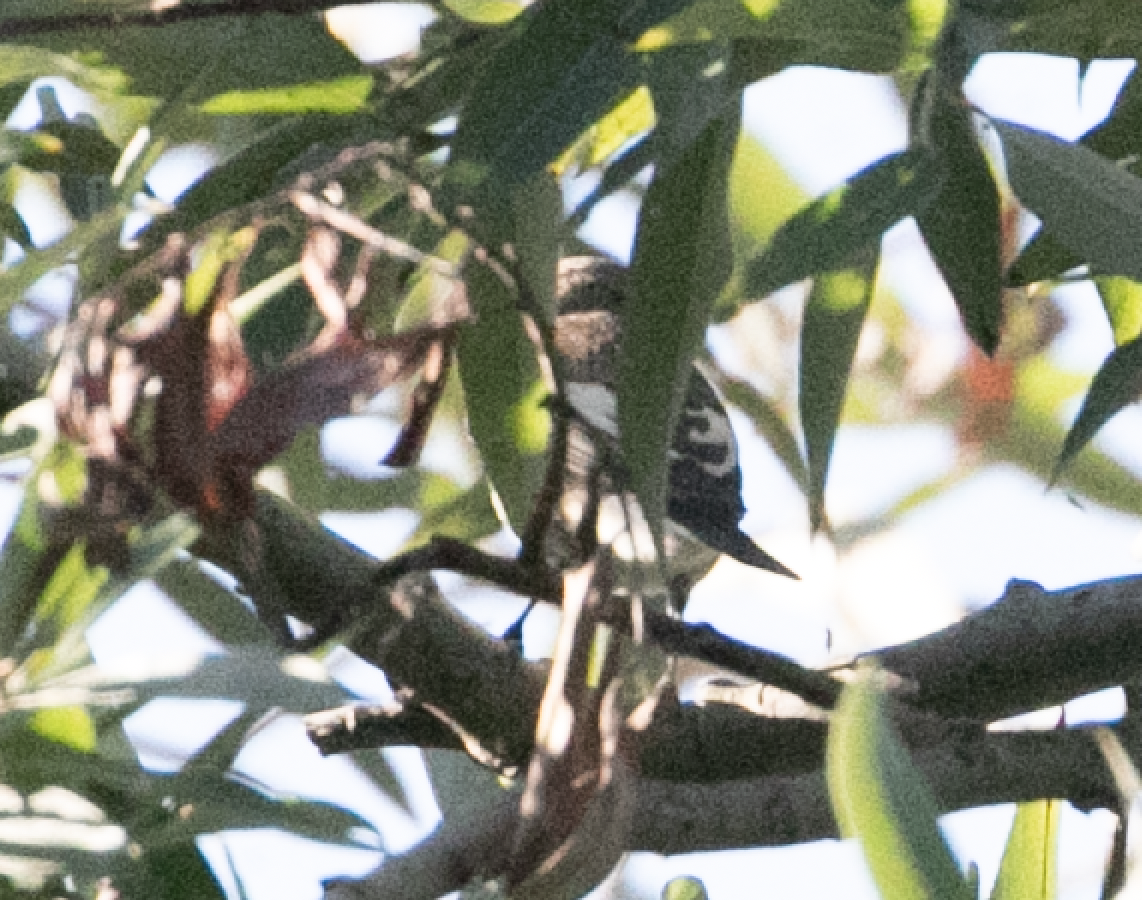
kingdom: Animalia
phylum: Chordata
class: Aves
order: Passeriformes
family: Muscicapidae
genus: Ficedula
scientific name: Ficedula hypoleuca
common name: European pied flycatcher
